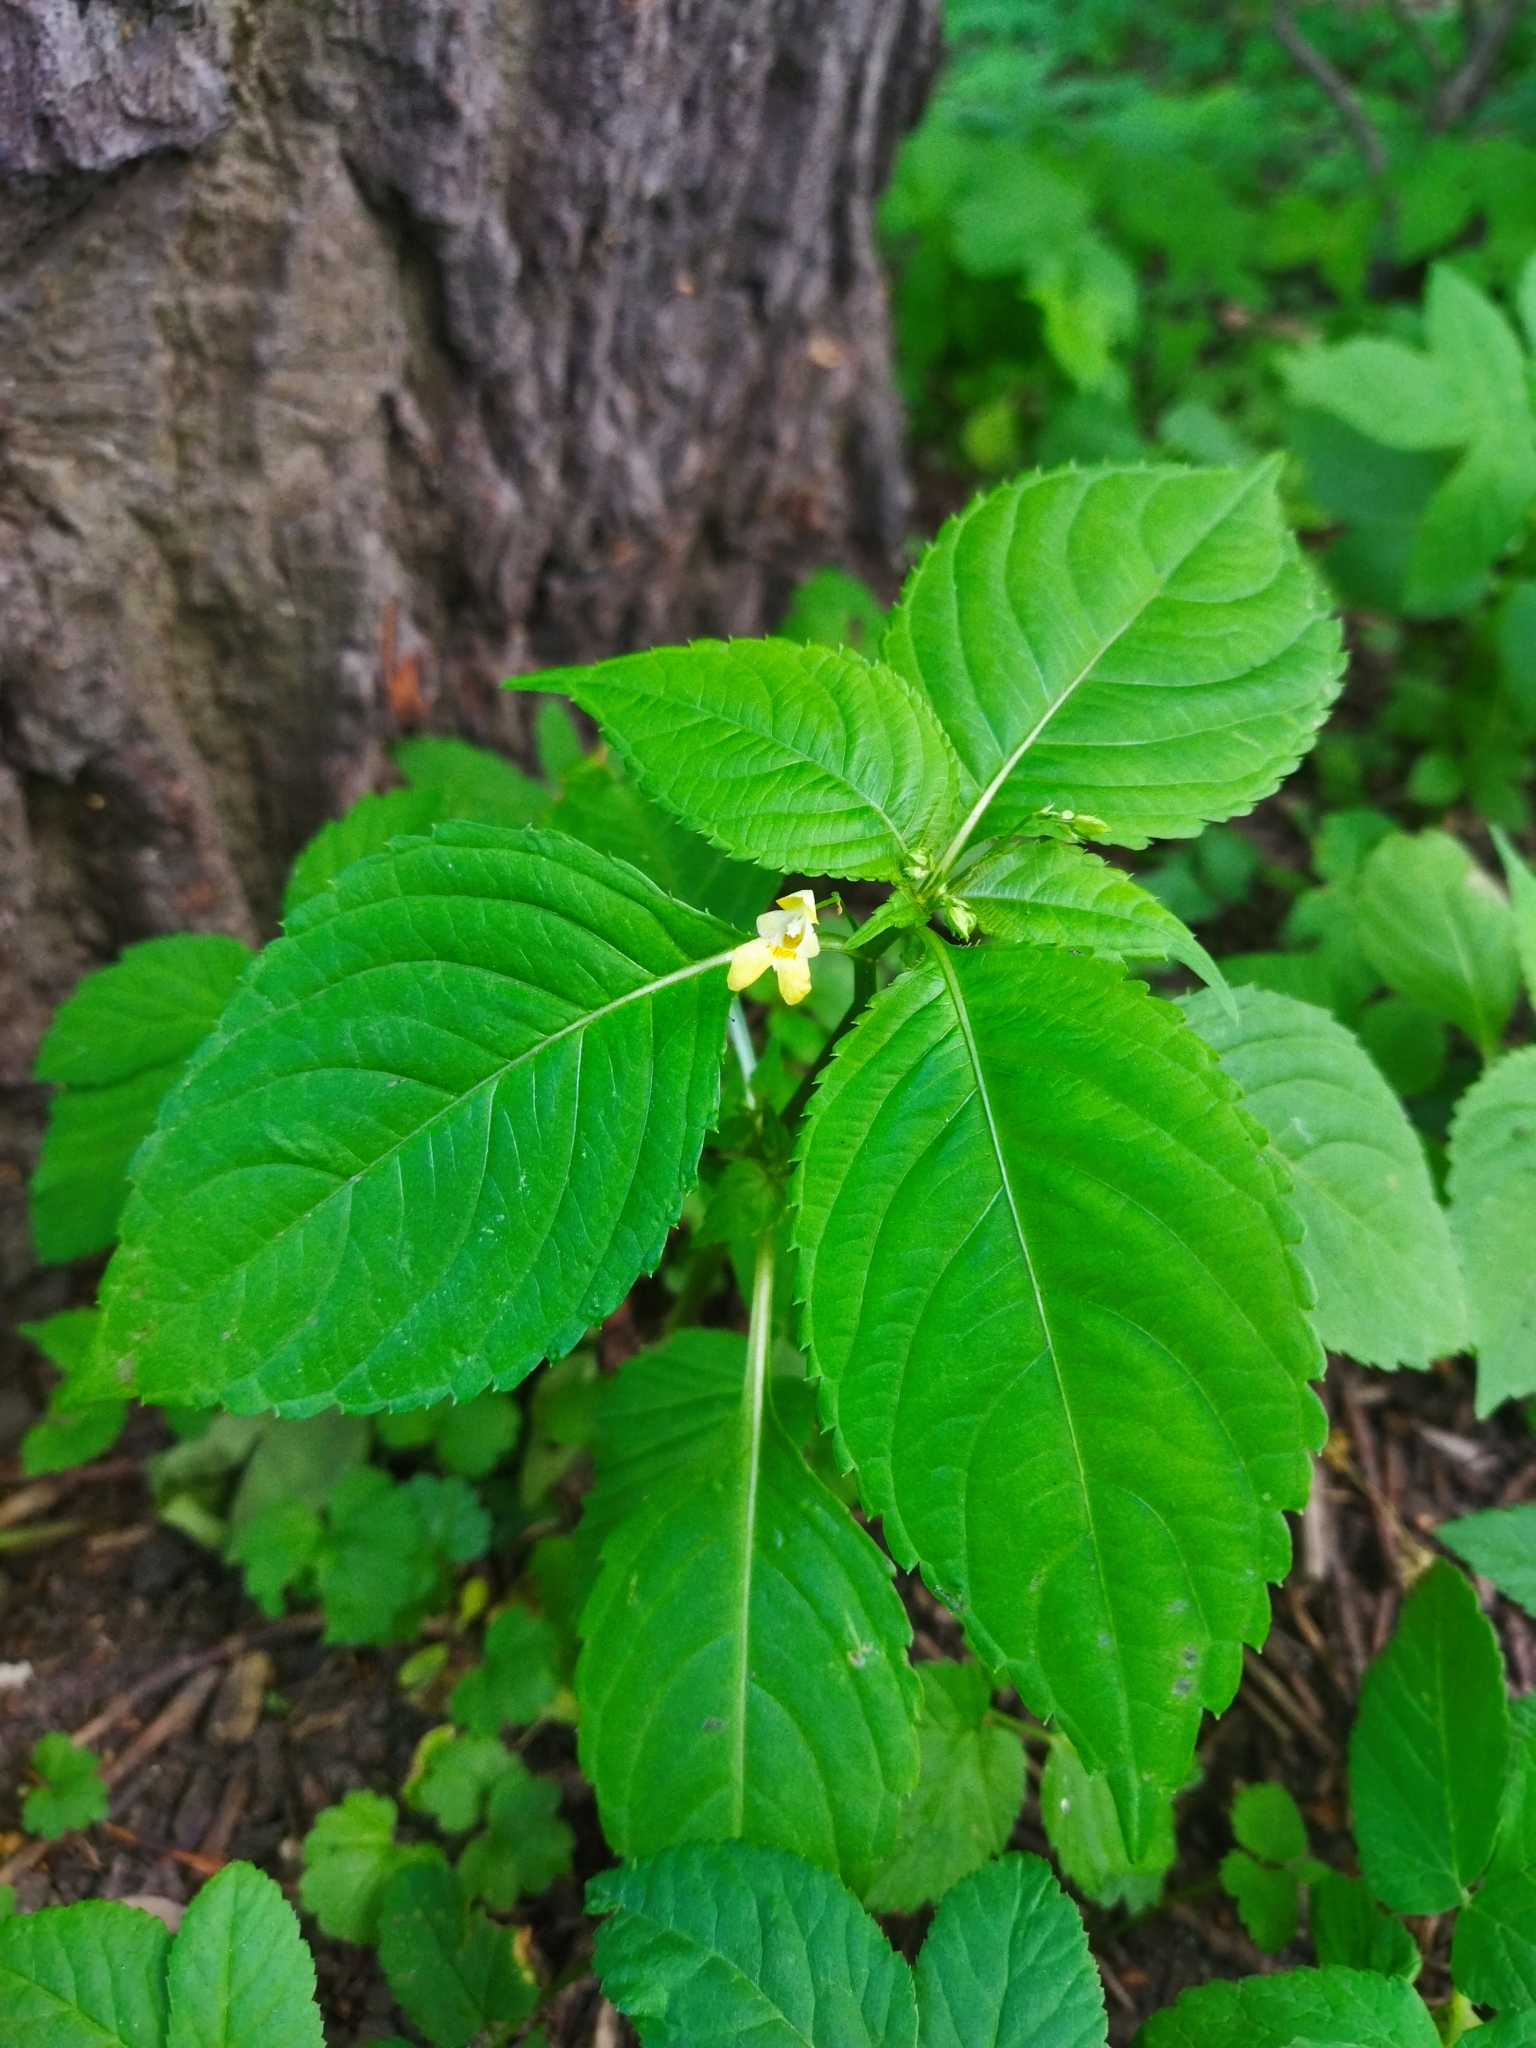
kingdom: Plantae
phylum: Tracheophyta
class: Magnoliopsida
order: Ericales
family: Balsaminaceae
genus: Impatiens
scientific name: Impatiens parviflora
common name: Small balsam
